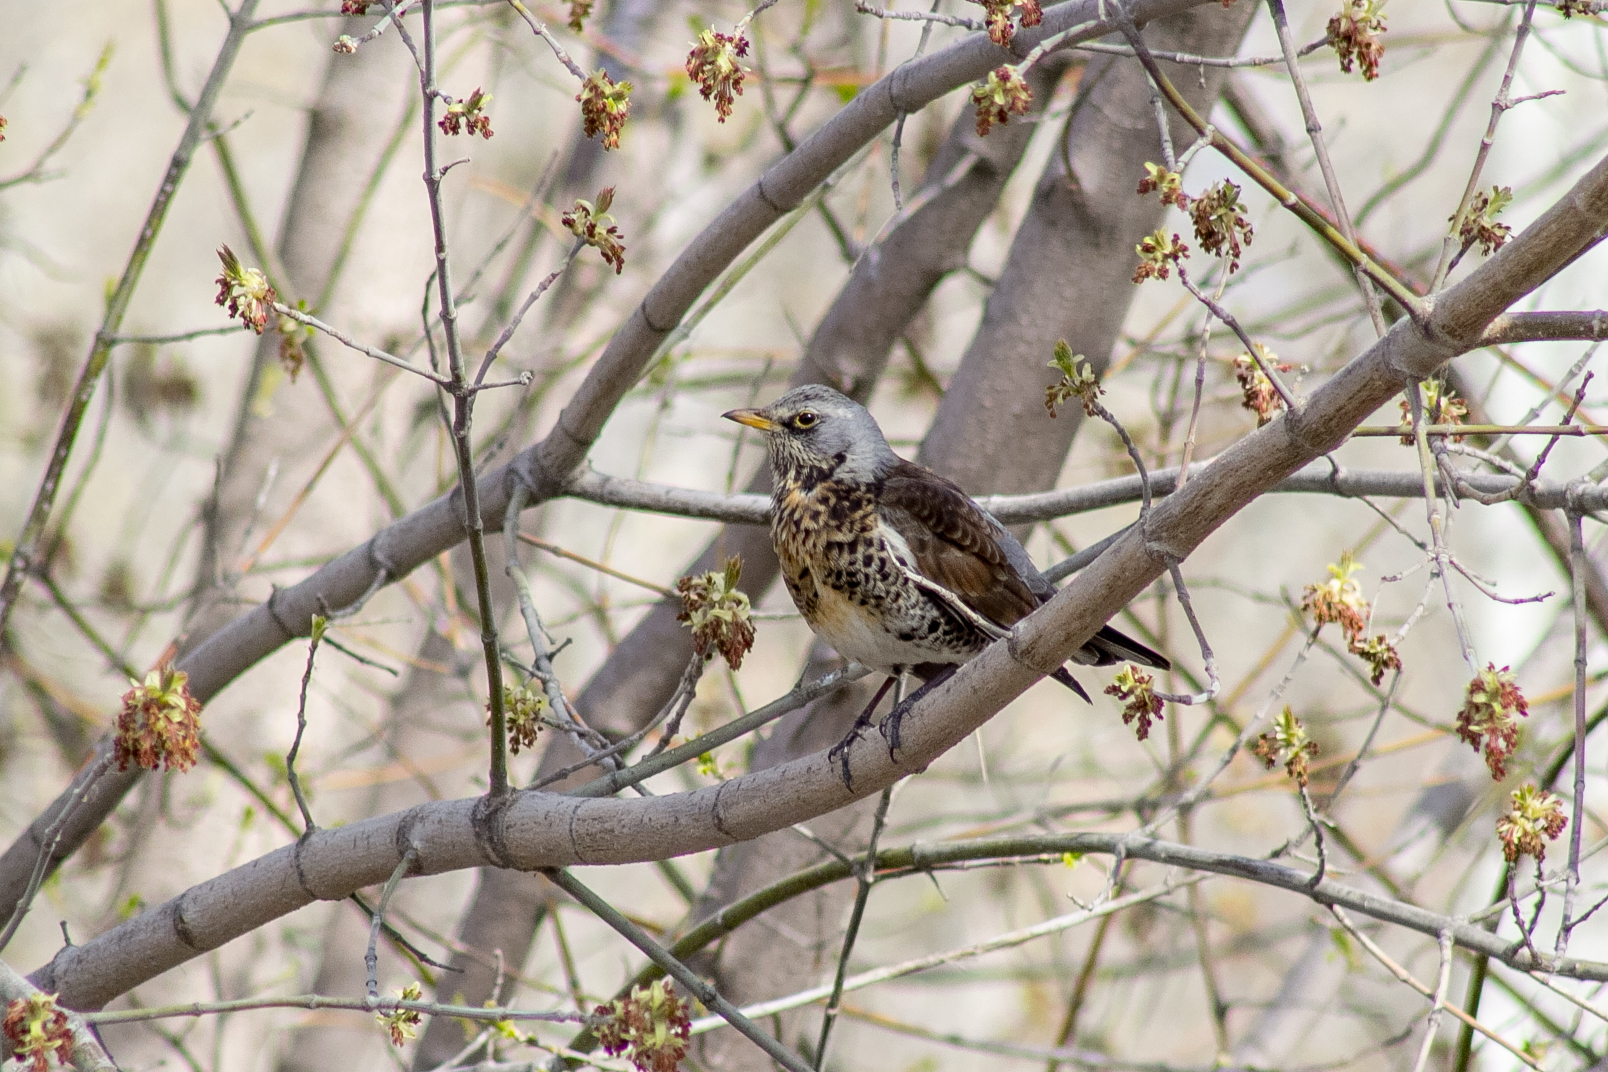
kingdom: Animalia
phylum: Chordata
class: Aves
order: Passeriformes
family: Turdidae
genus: Turdus
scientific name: Turdus pilaris
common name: Fieldfare
